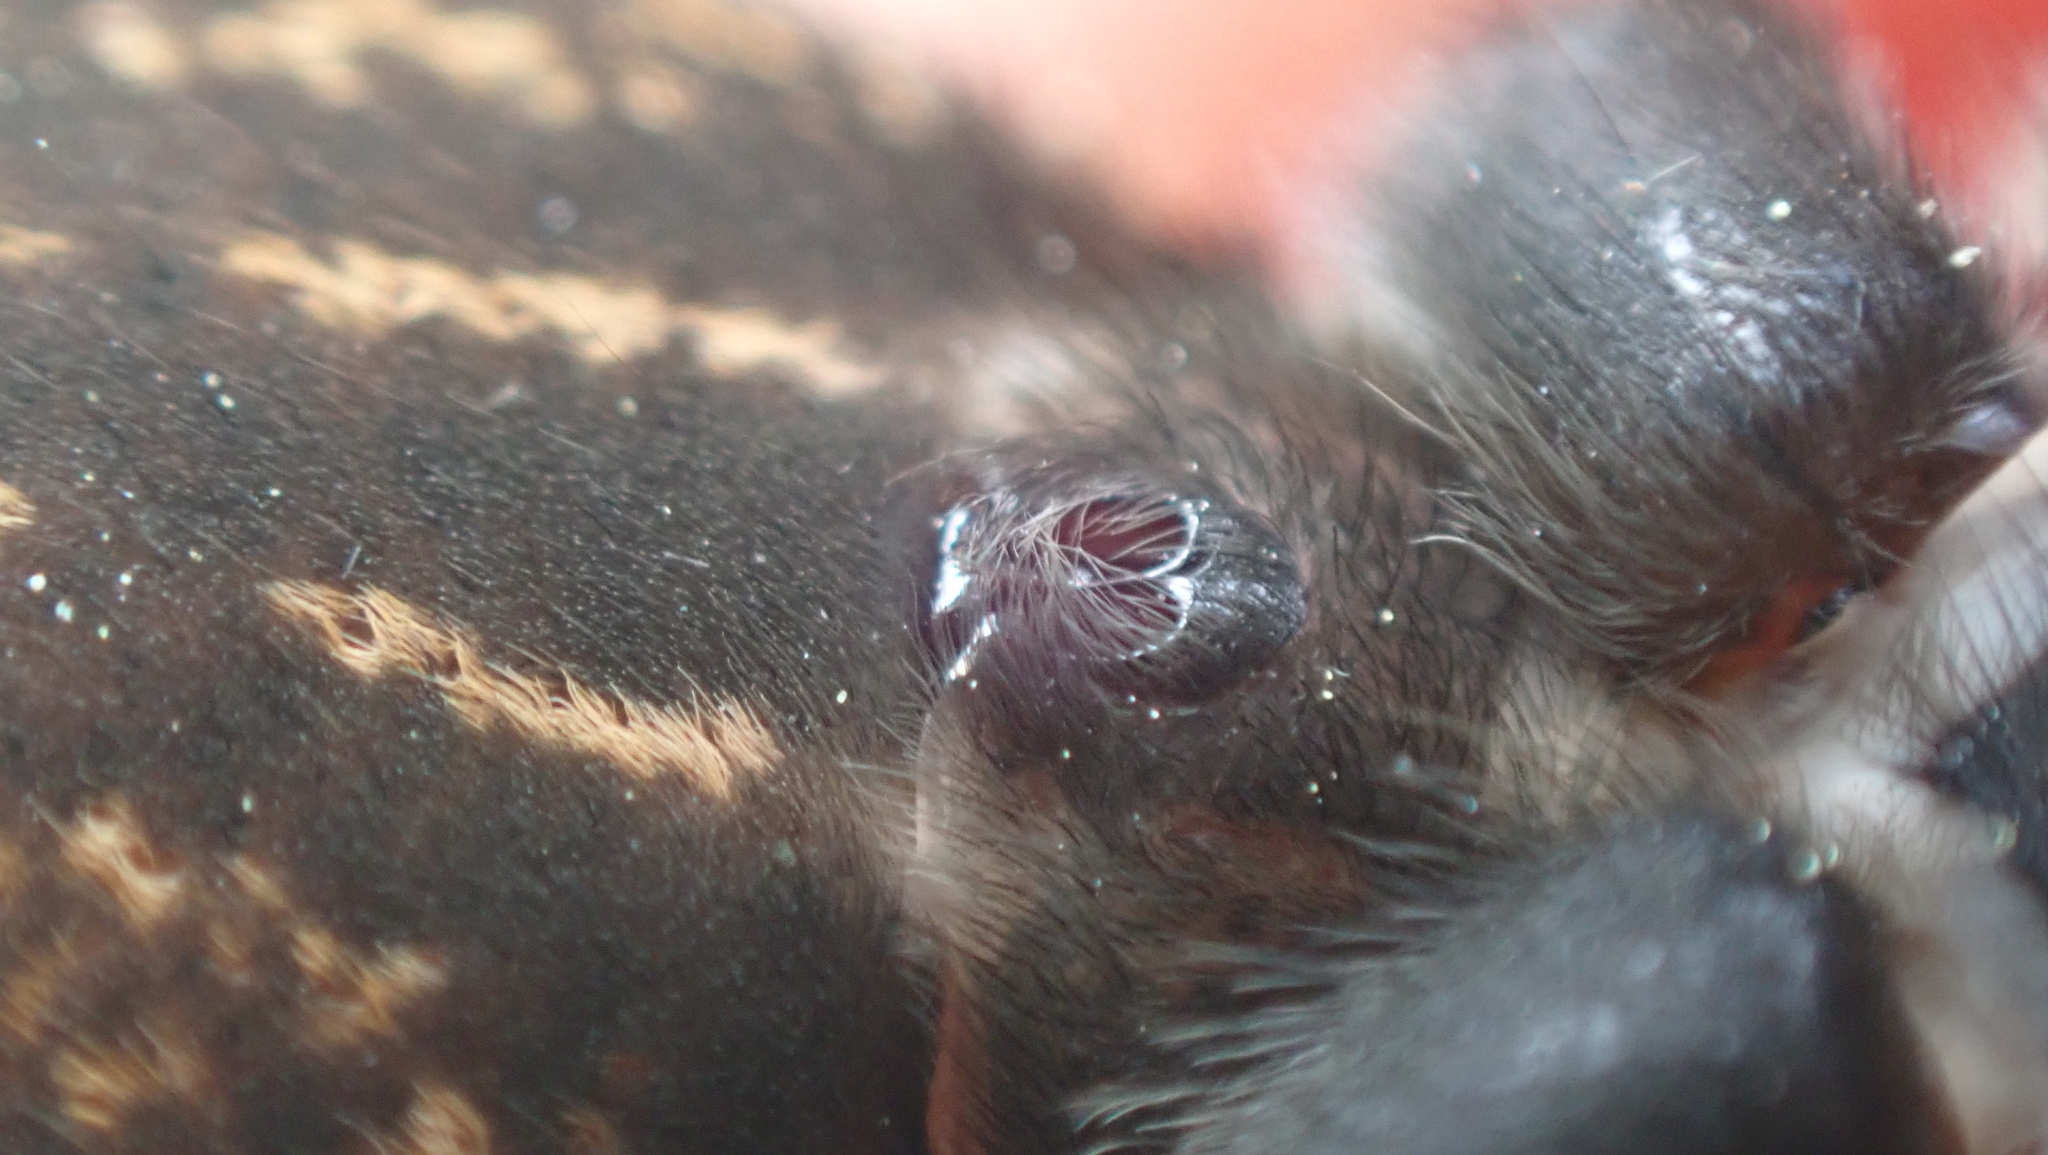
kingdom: Animalia
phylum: Arthropoda
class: Arachnida
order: Araneae
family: Lycosidae
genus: Tigrosa
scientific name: Tigrosa georgicola
